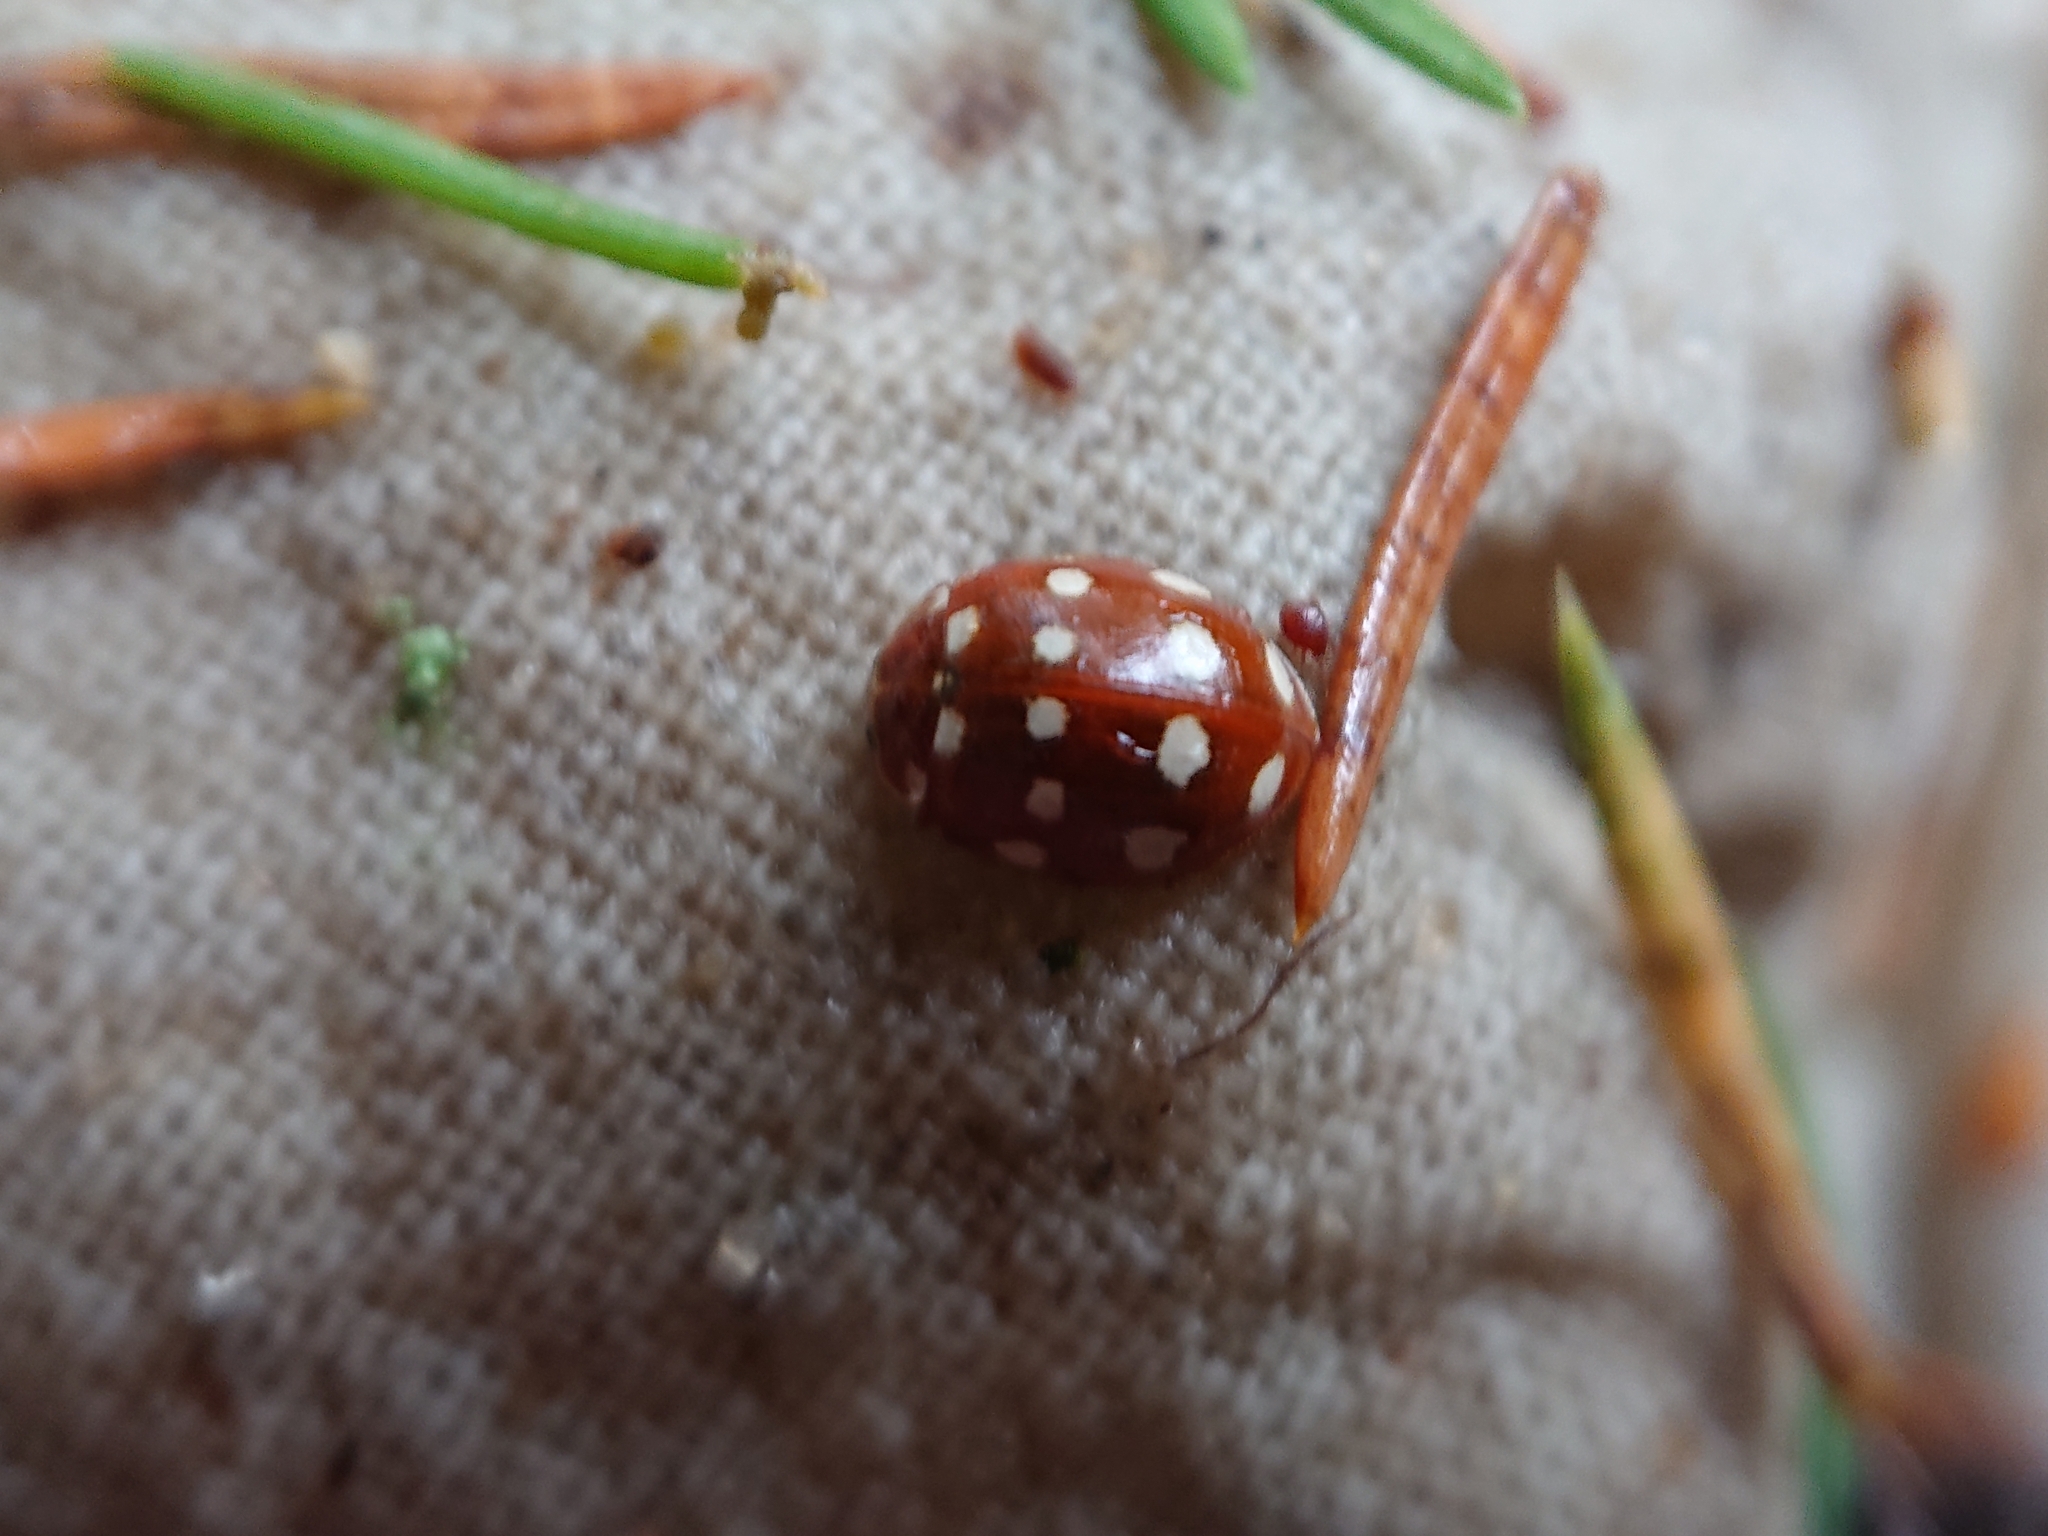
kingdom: Animalia
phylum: Arthropoda
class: Insecta
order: Coleoptera
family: Coccinellidae
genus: Calvia
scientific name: Calvia quatuordecimguttata
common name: Cream-spot ladybird
